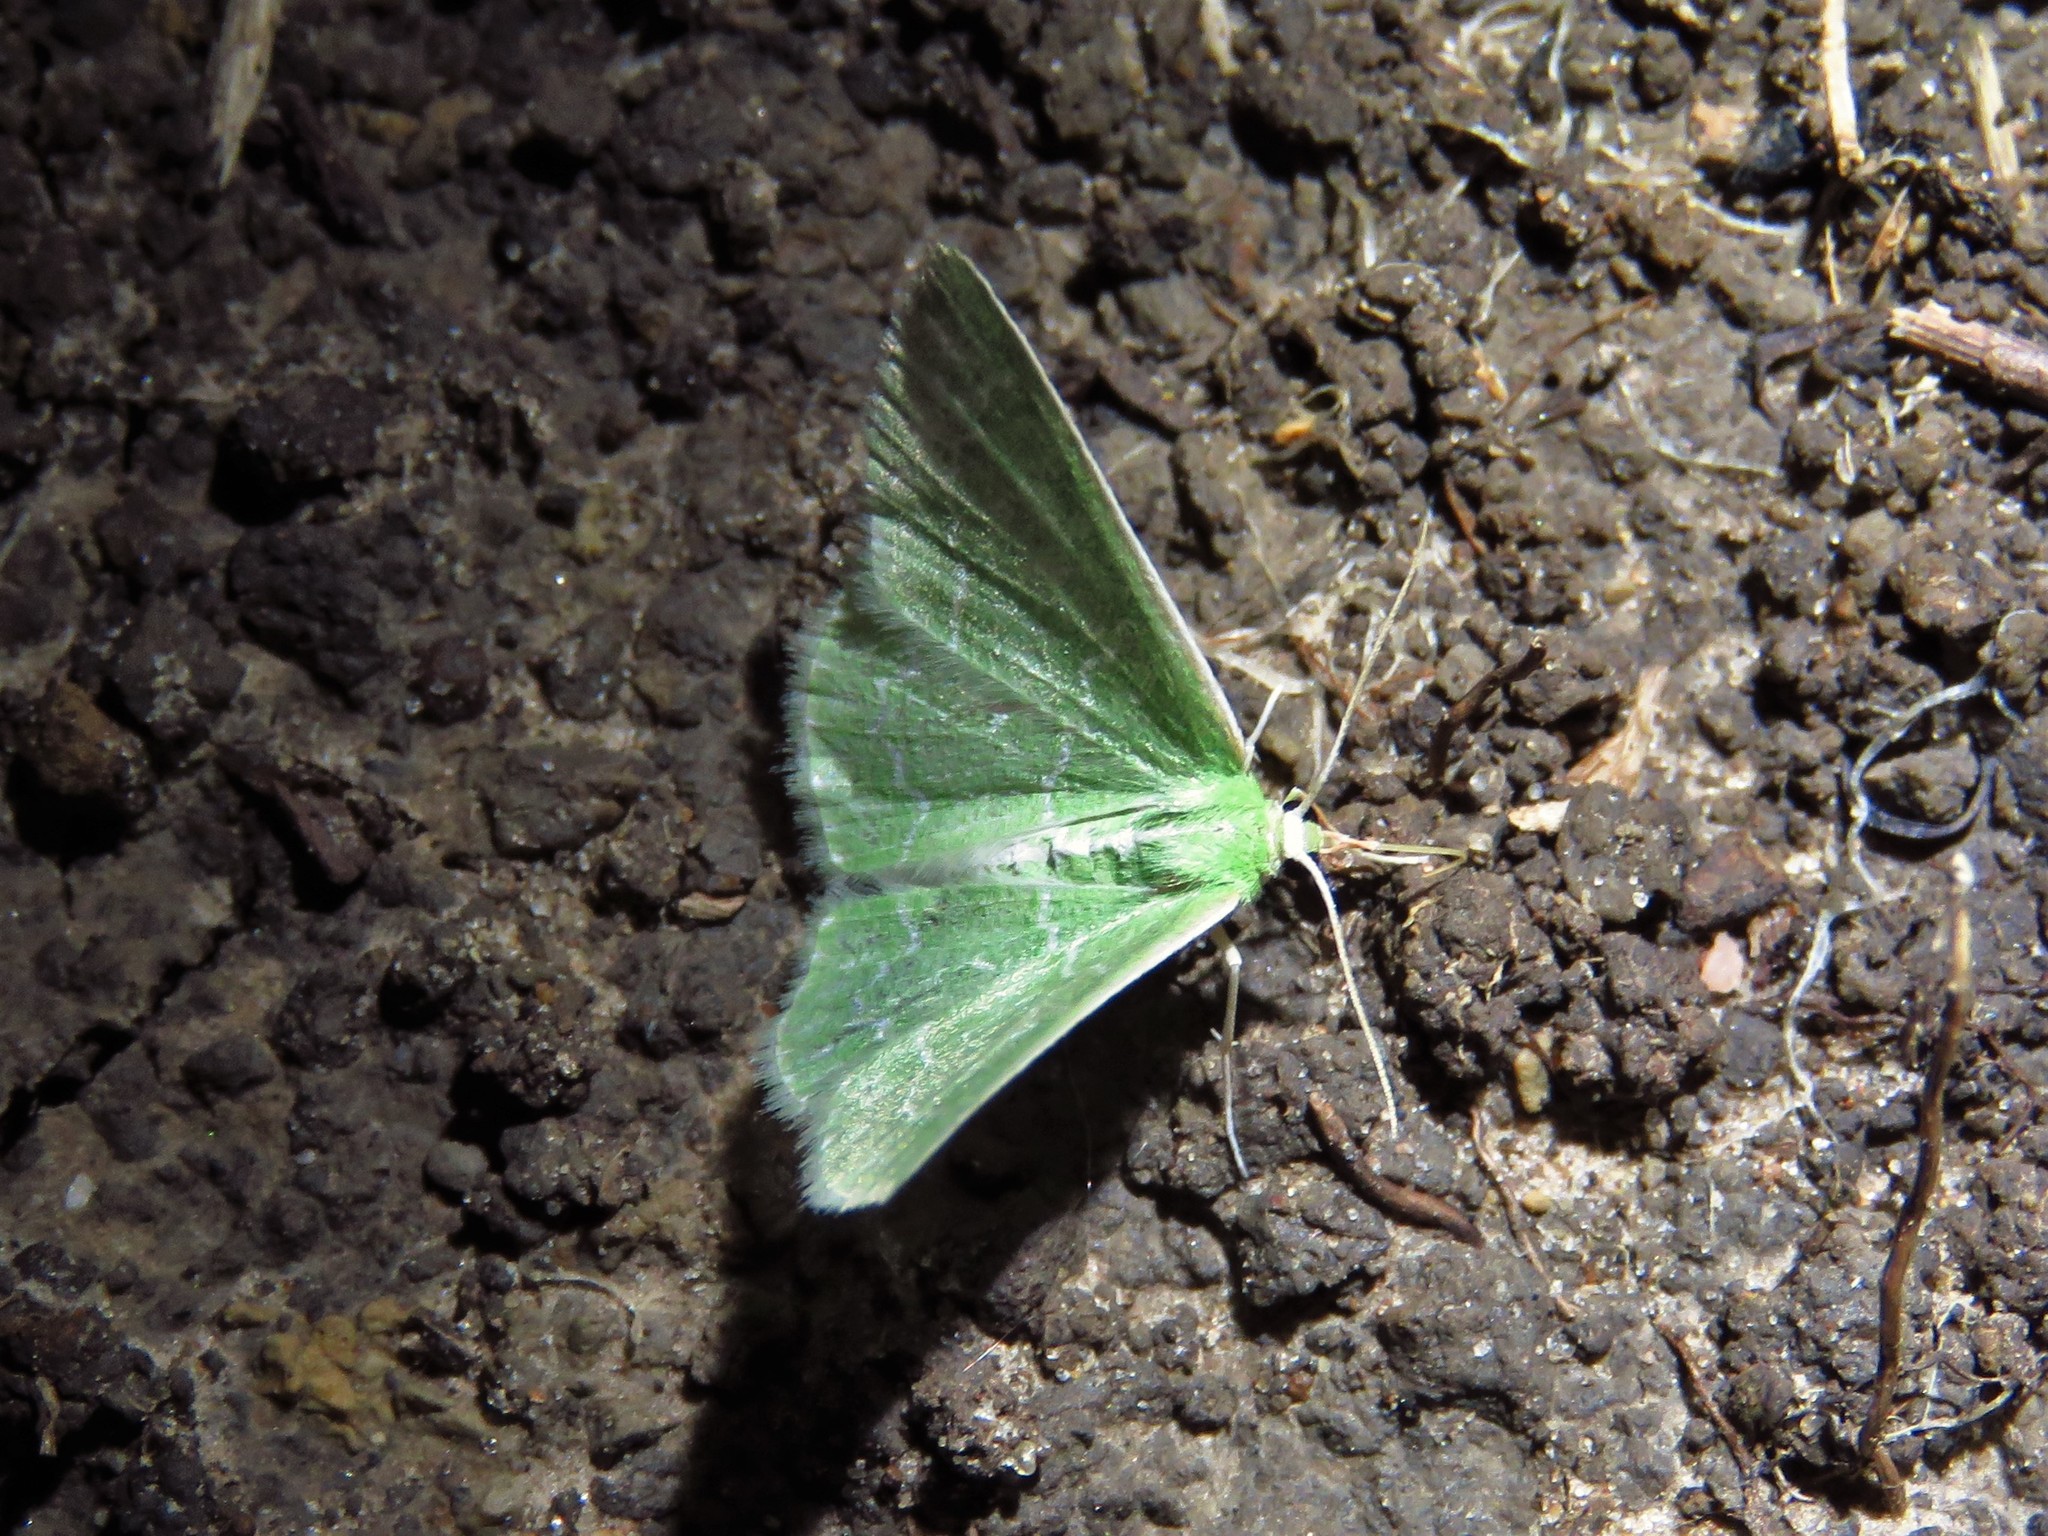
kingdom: Animalia
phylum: Arthropoda
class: Insecta
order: Lepidoptera
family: Geometridae
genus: Synchlora
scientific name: Synchlora frondaria
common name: Southern emerald
